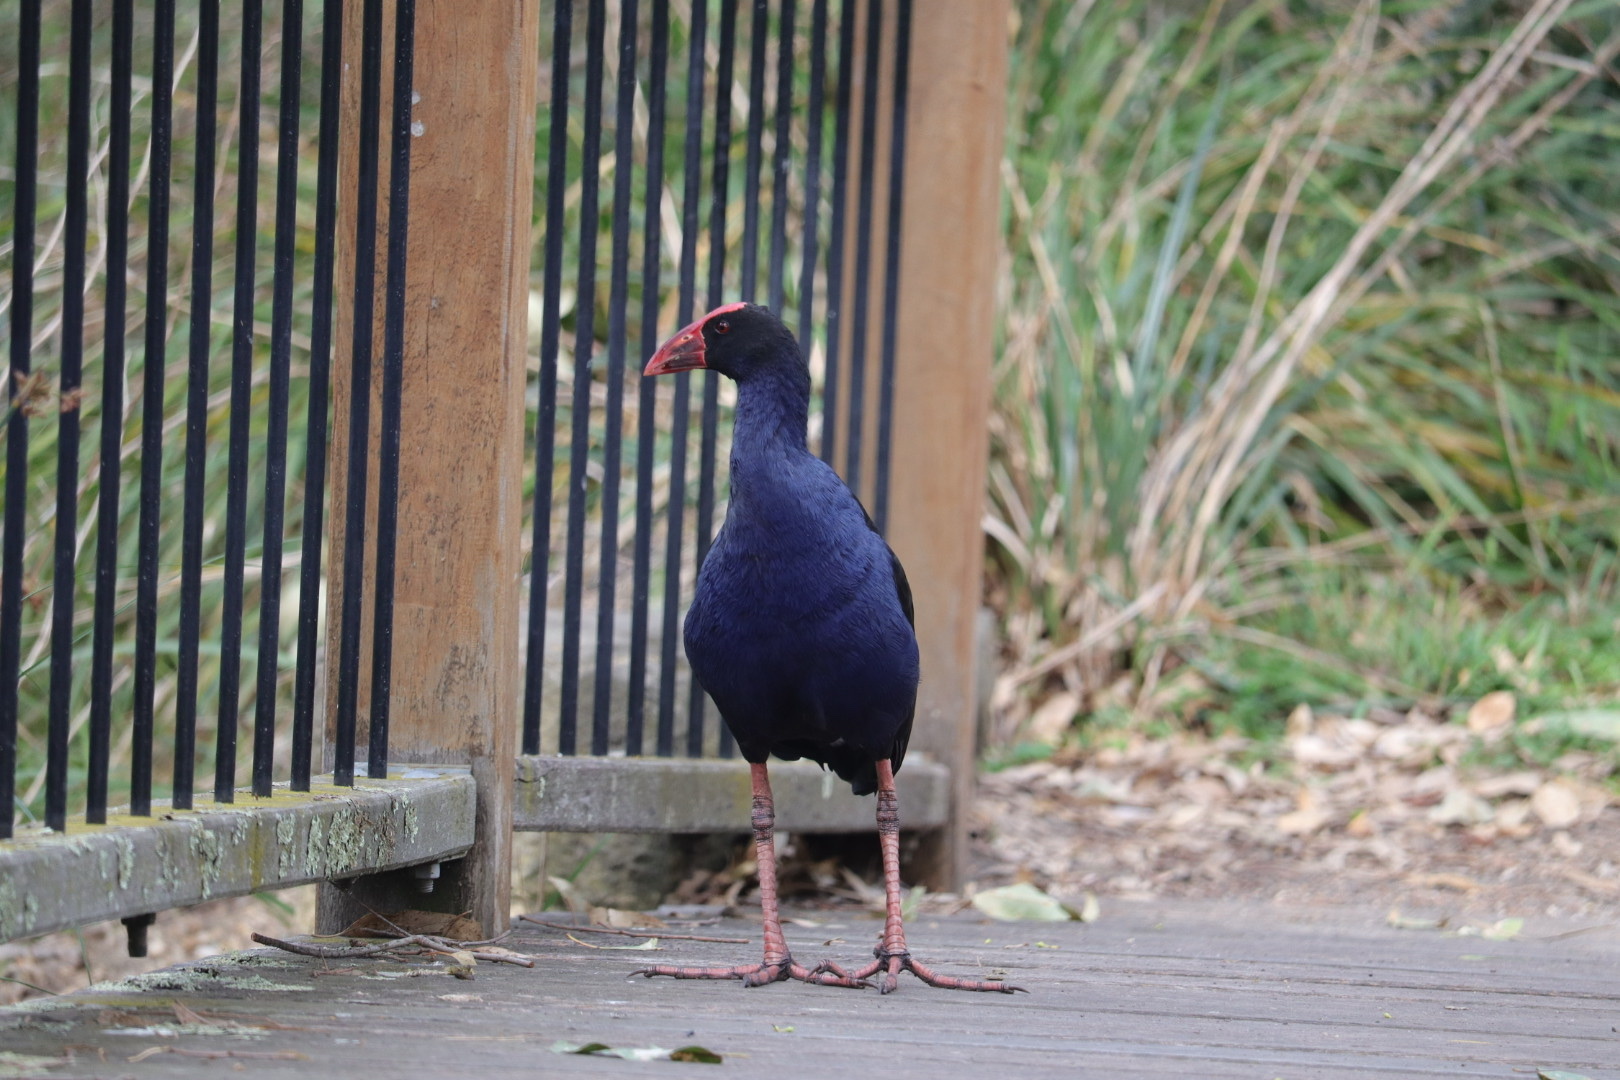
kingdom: Animalia
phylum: Chordata
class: Aves
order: Gruiformes
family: Rallidae
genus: Porphyrio
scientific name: Porphyrio melanotus
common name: Australasian swamphen
